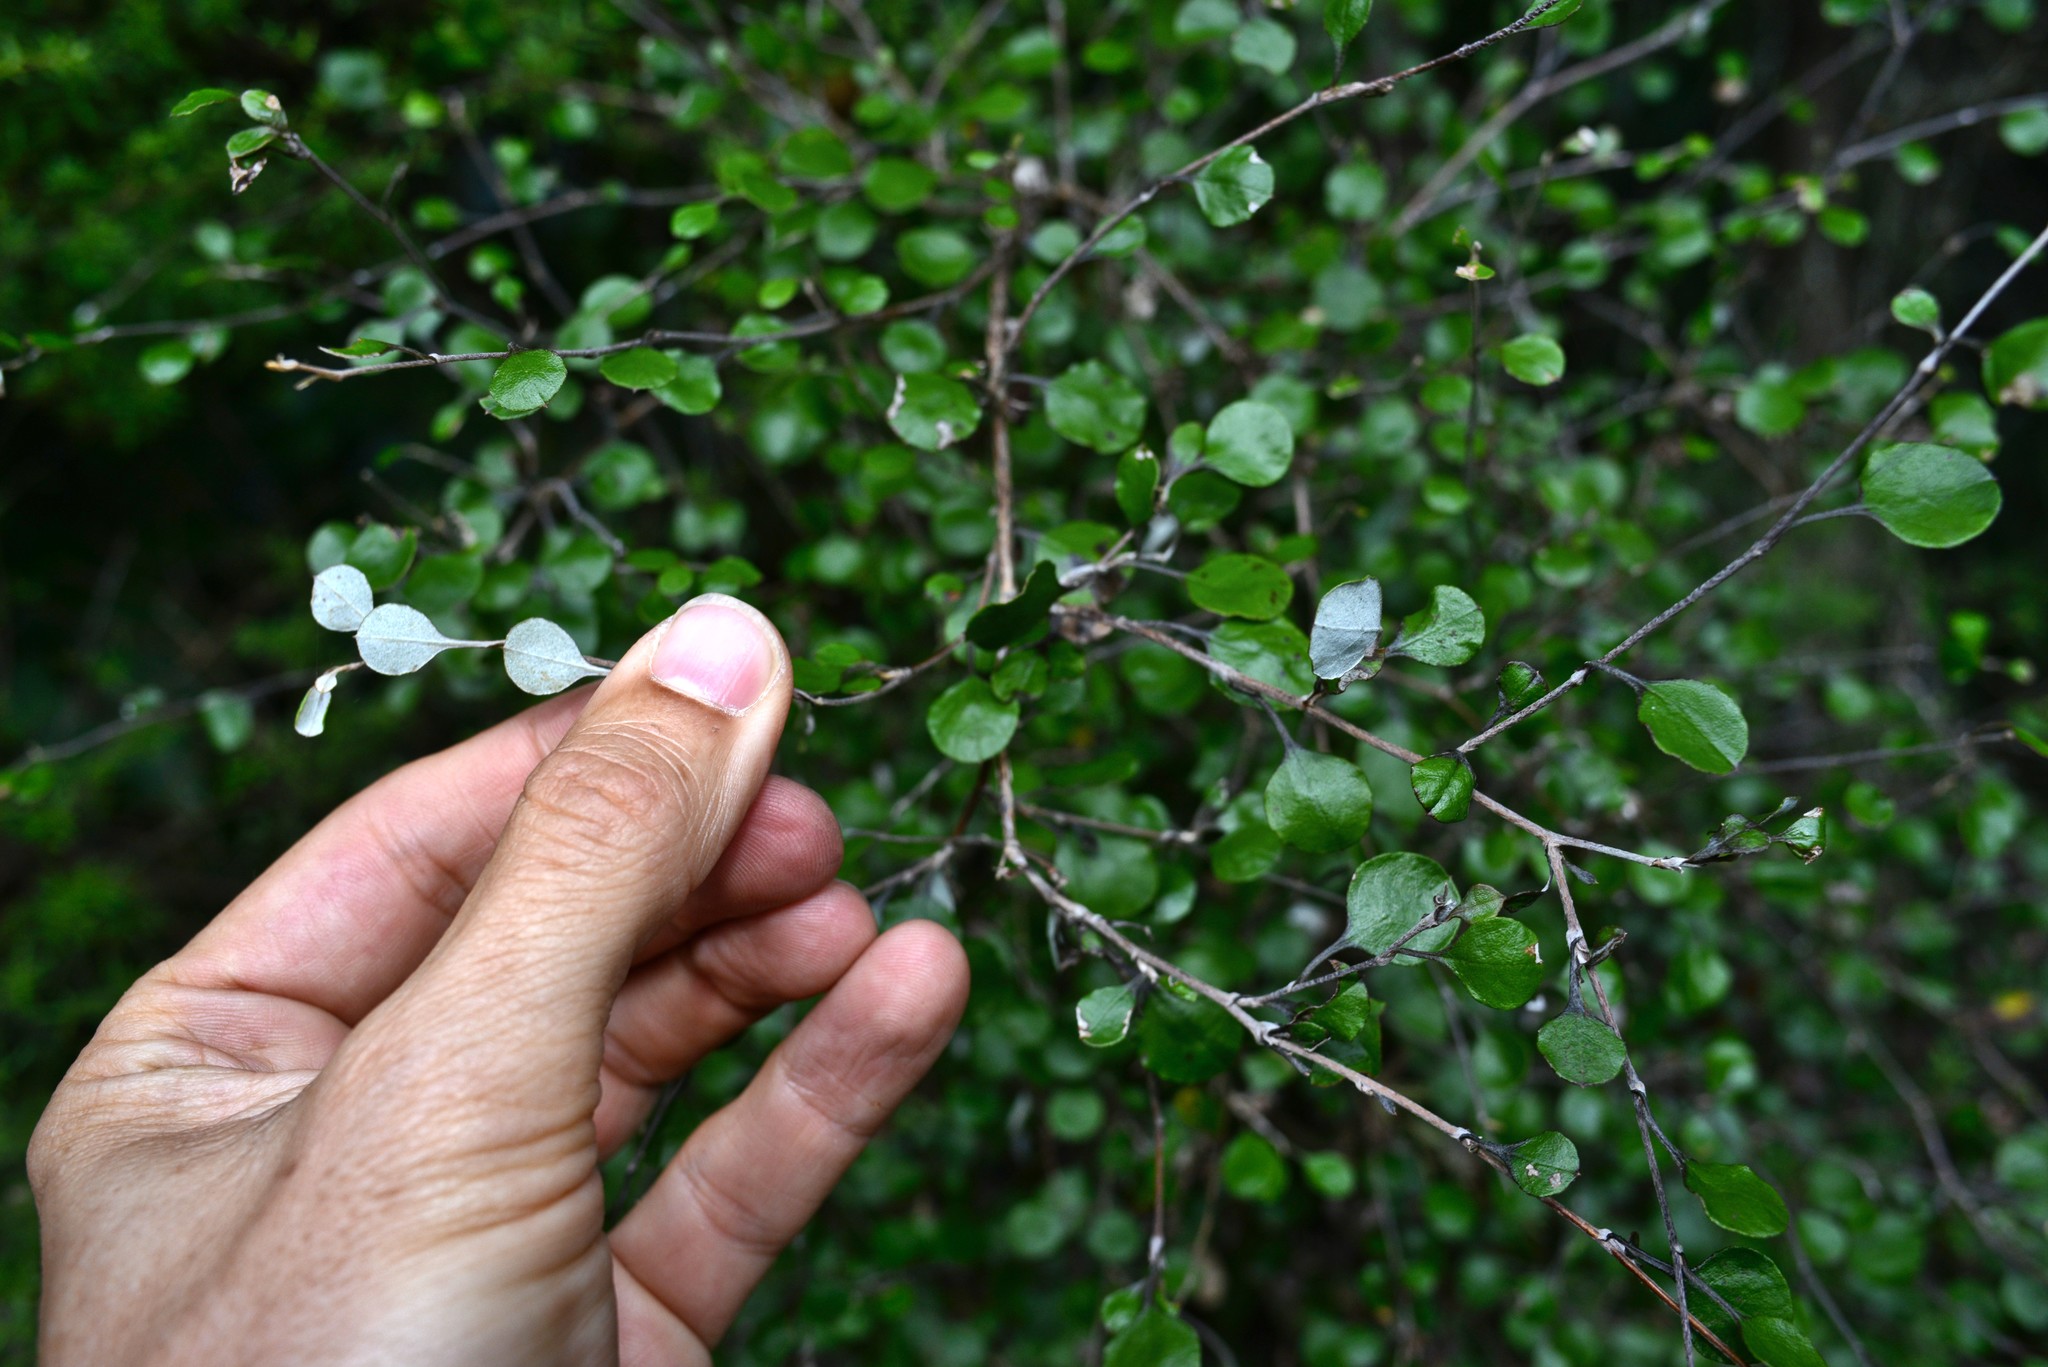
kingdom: Plantae
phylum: Tracheophyta
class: Magnoliopsida
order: Asterales
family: Asteraceae
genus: Ozothamnus
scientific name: Ozothamnus glomeratus
